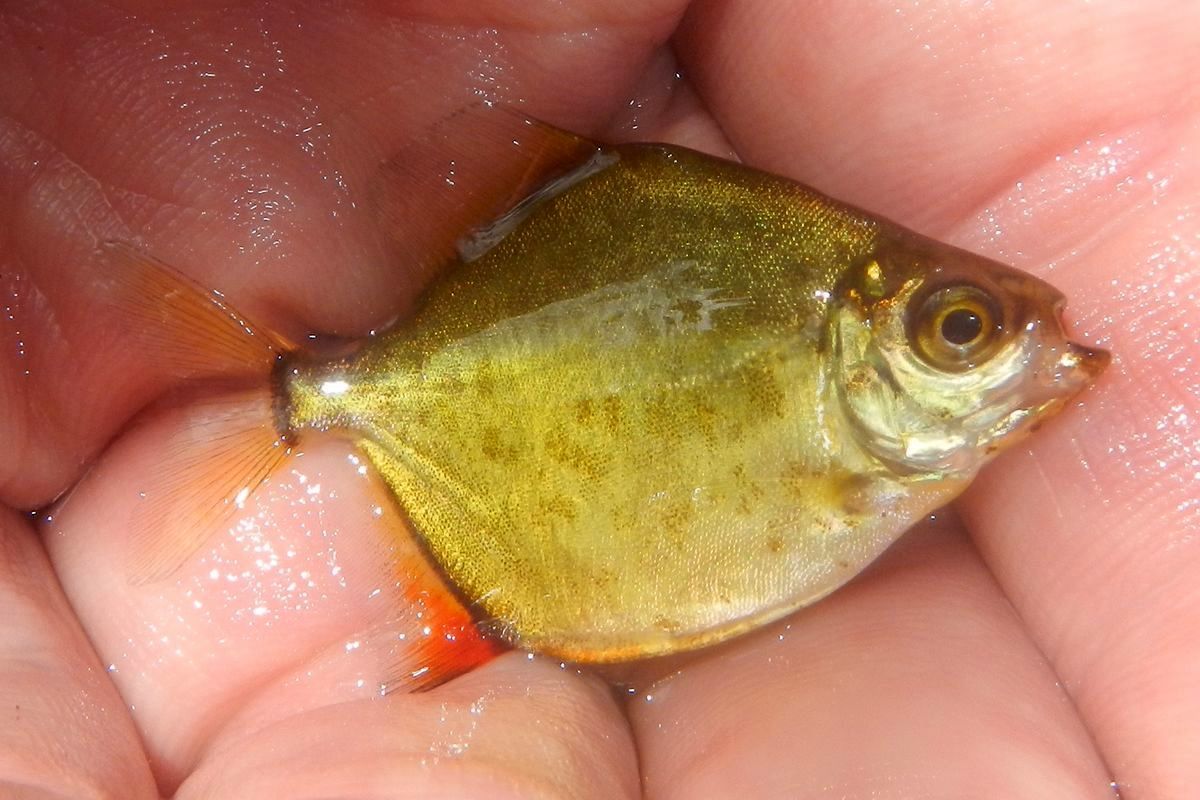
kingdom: Animalia
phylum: Chordata
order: Characiformes
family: Serrasalmidae
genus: Myloplus
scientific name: Myloplus ternetzi
